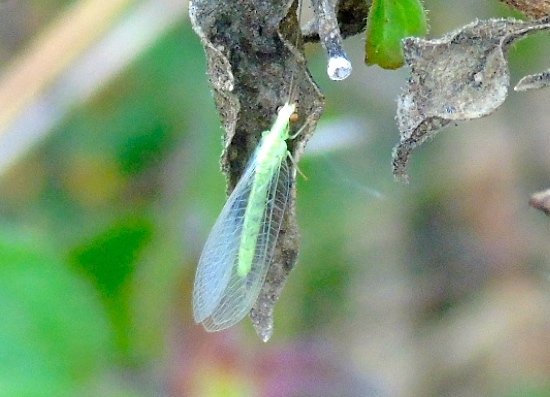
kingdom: Animalia
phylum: Arthropoda
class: Insecta
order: Neuroptera
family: Chrysopidae
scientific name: Chrysopidae
